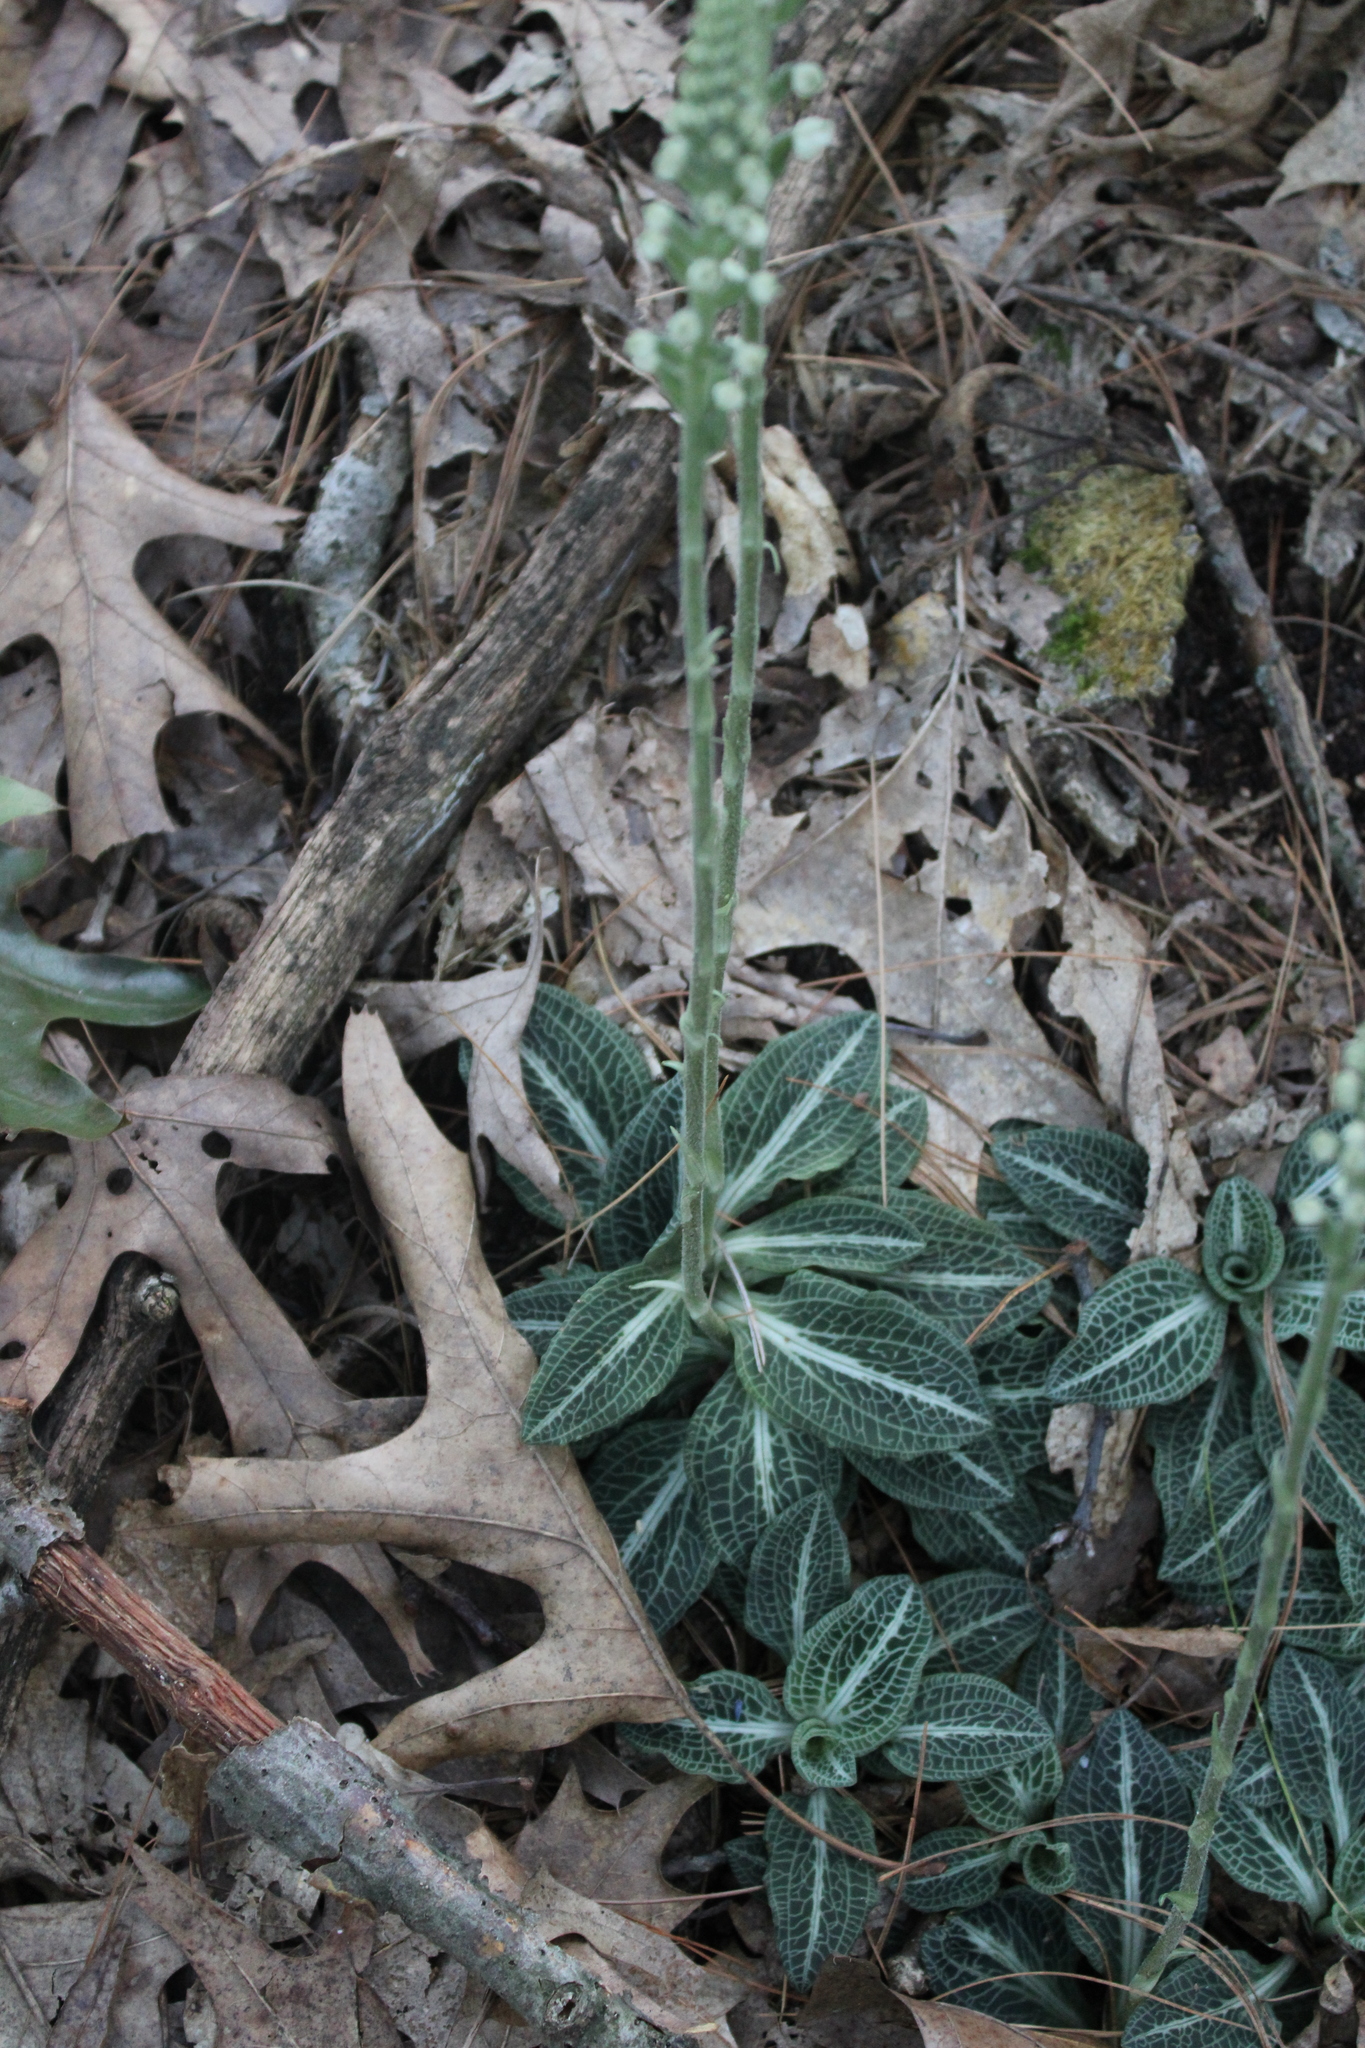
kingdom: Plantae
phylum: Tracheophyta
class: Liliopsida
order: Asparagales
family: Orchidaceae
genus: Goodyera
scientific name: Goodyera pubescens
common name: Downy rattlesnake-plantain
